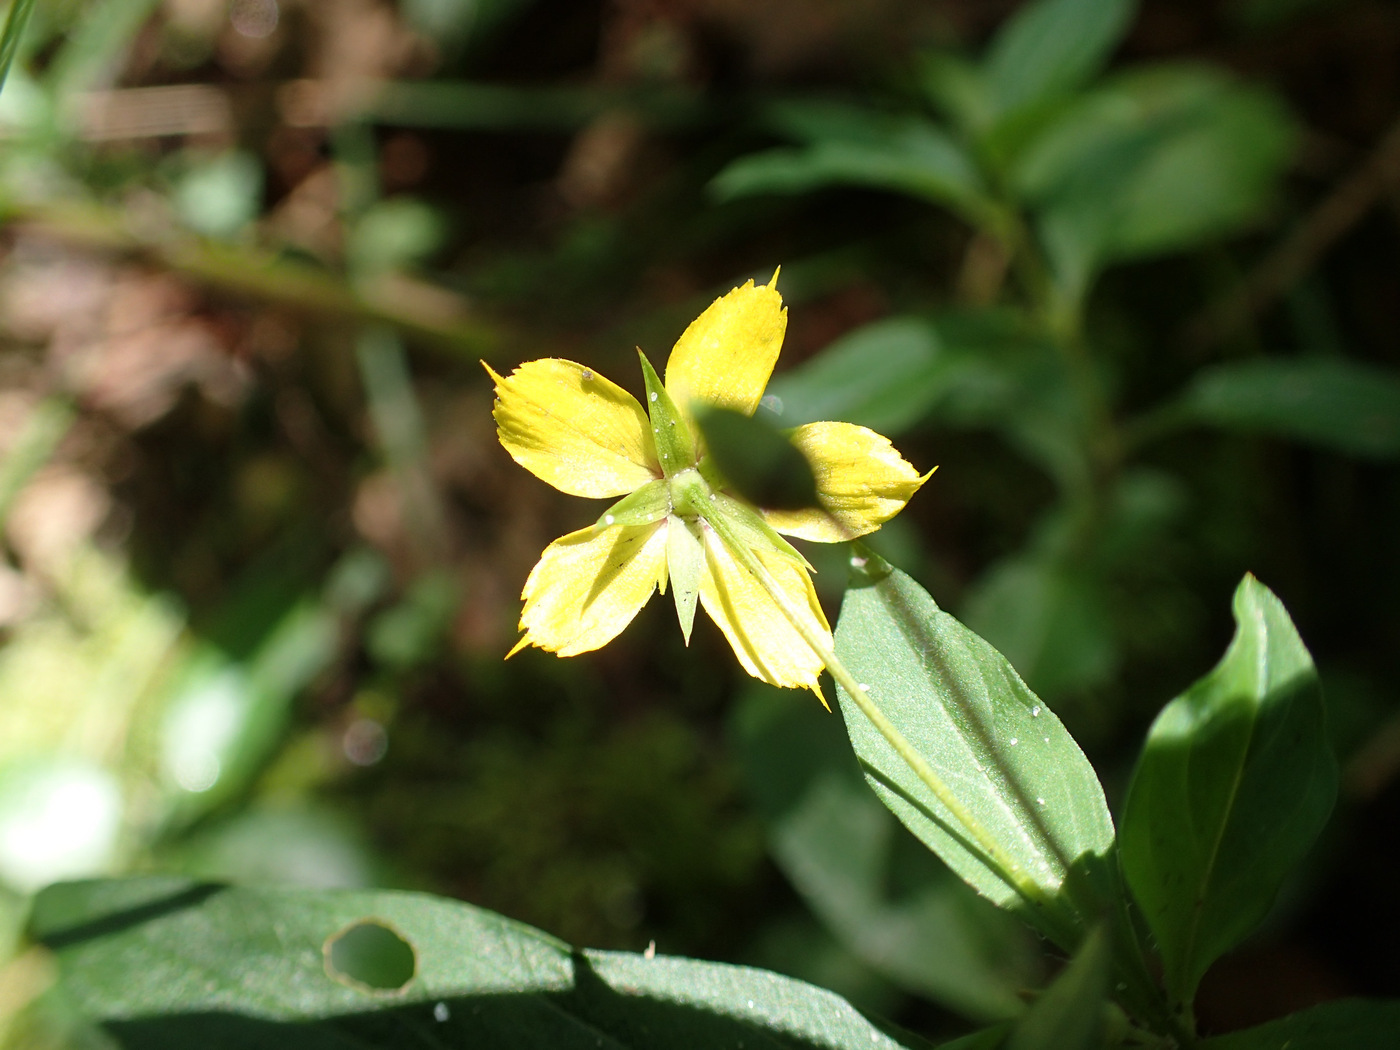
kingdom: Plantae
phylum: Tracheophyta
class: Magnoliopsida
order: Ericales
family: Primulaceae
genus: Lysimachia
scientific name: Lysimachia ciliata
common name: Fringed loosestrife
